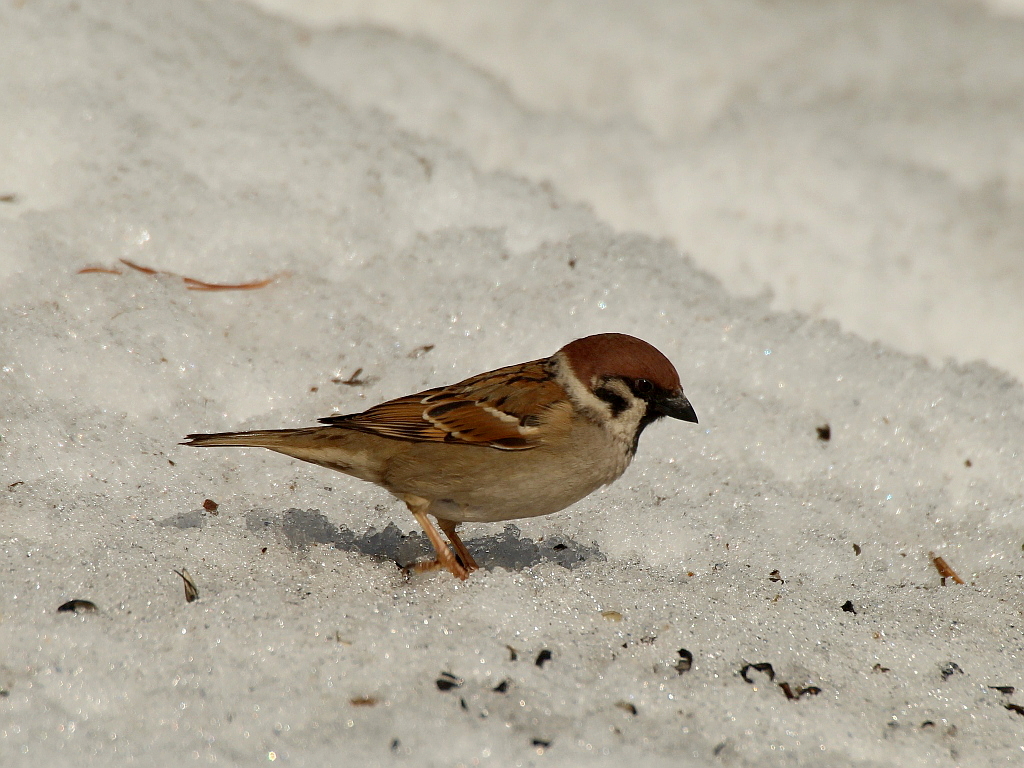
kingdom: Animalia
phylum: Chordata
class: Aves
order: Passeriformes
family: Passeridae
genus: Passer
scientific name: Passer montanus
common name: Eurasian tree sparrow
